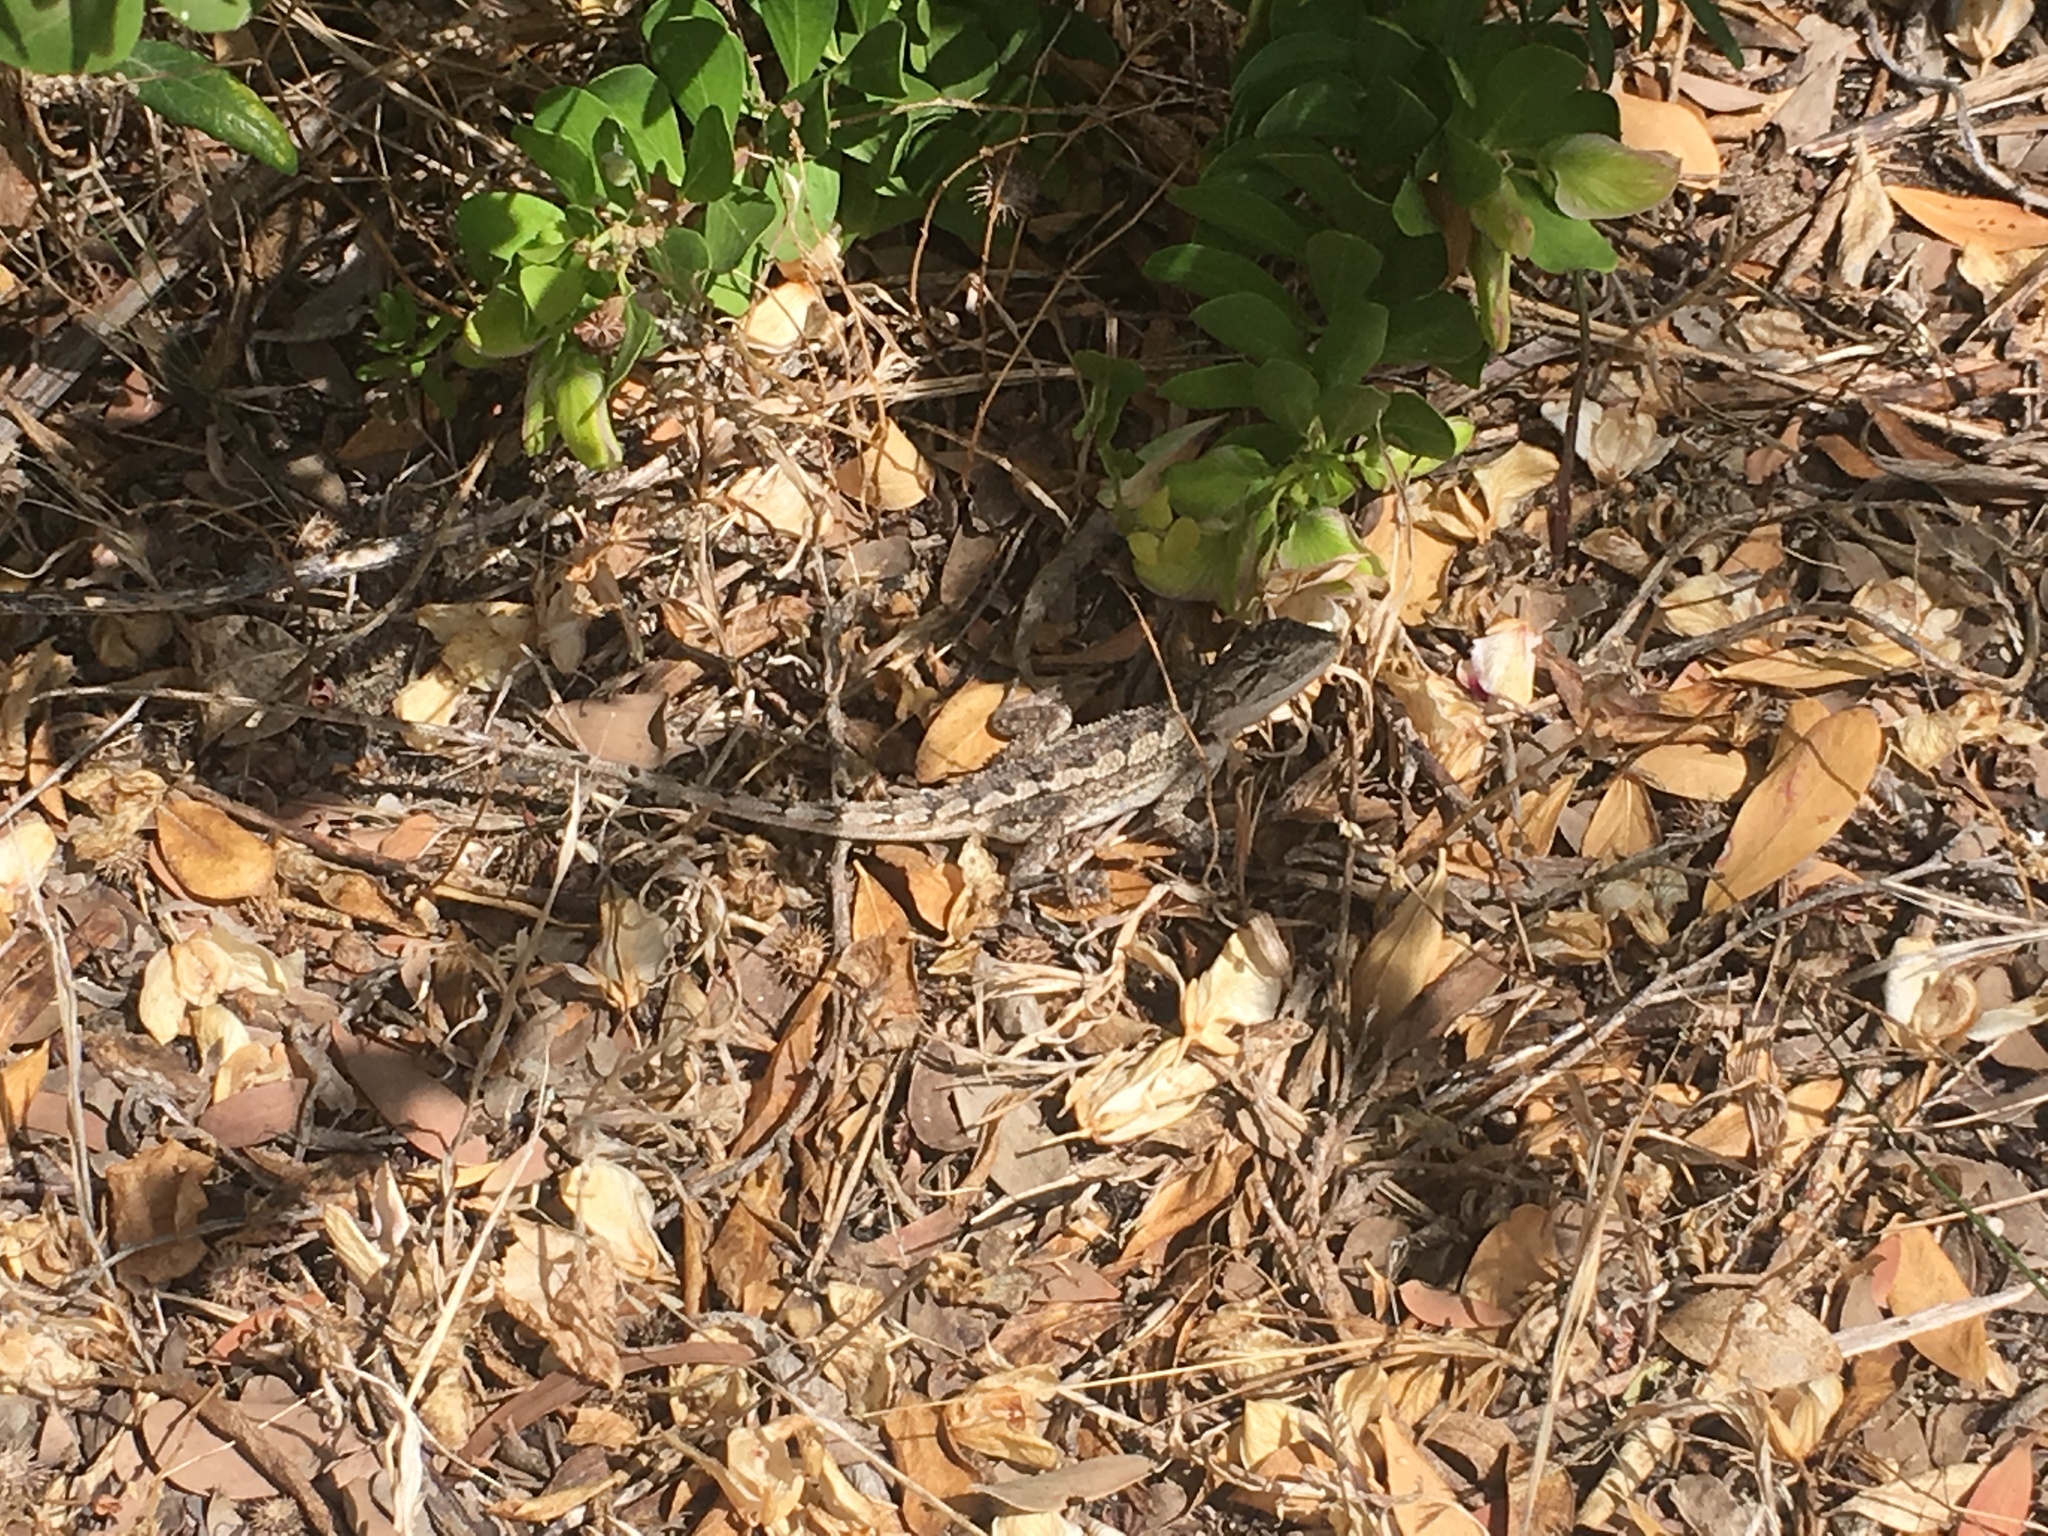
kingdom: Animalia
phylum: Chordata
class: Squamata
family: Agamidae
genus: Amphibolurus
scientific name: Amphibolurus muricatus
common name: Jacky lizard
